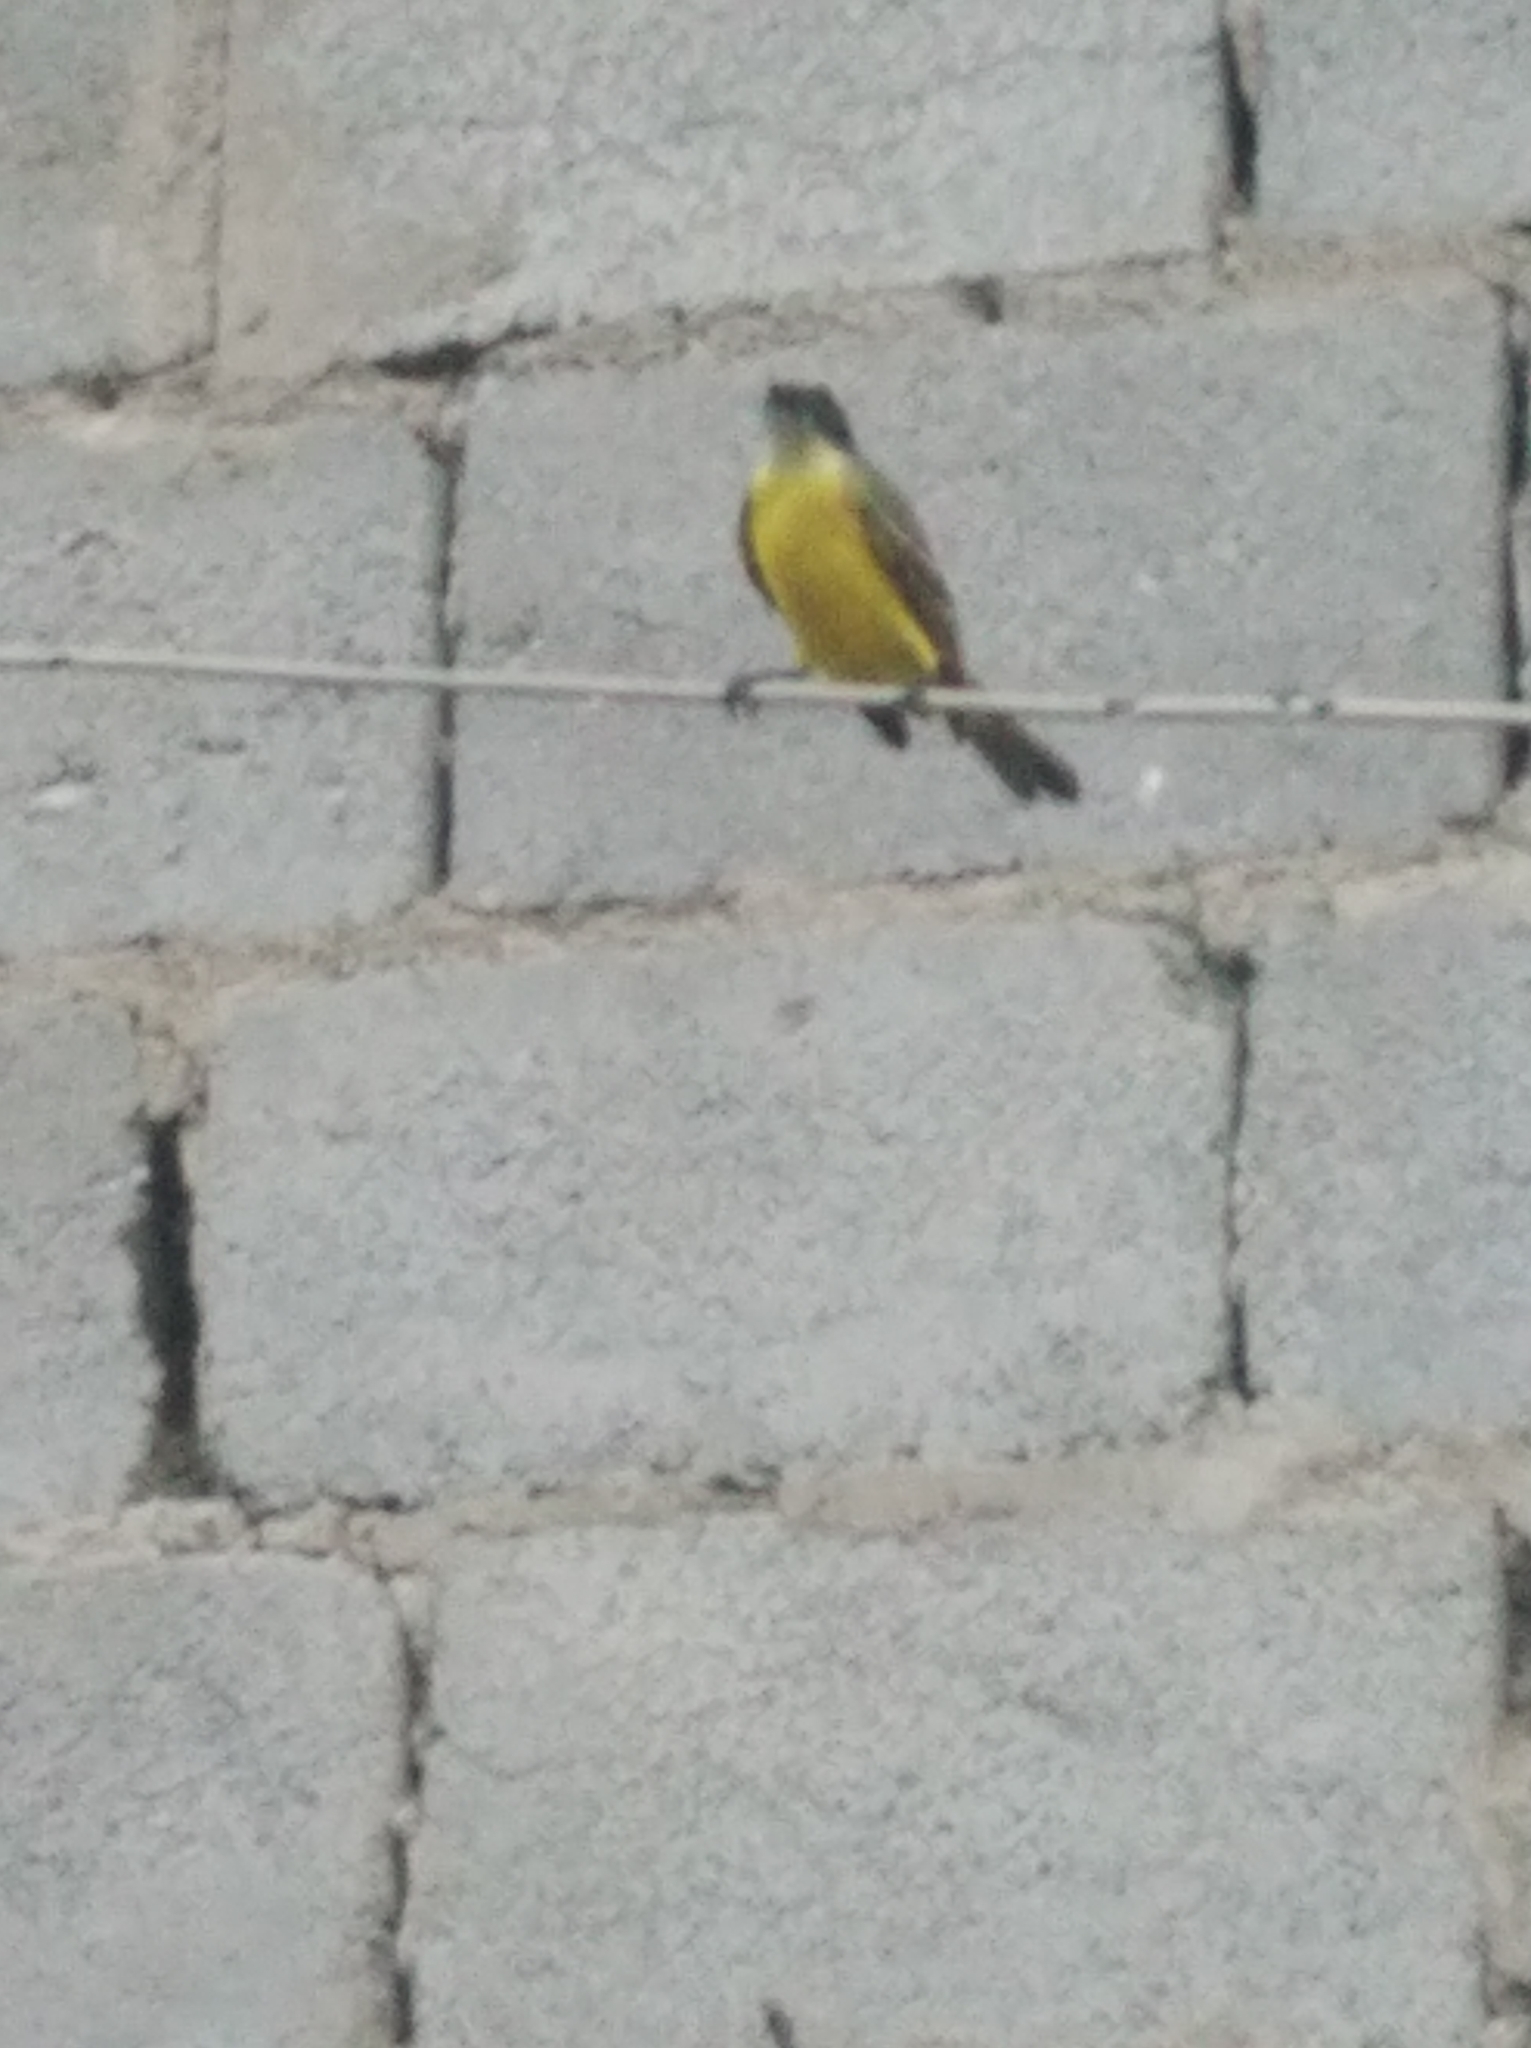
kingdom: Animalia
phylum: Chordata
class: Aves
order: Passeriformes
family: Tyrannidae
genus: Myiozetetes
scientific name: Myiozetetes similis
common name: Social flycatcher
